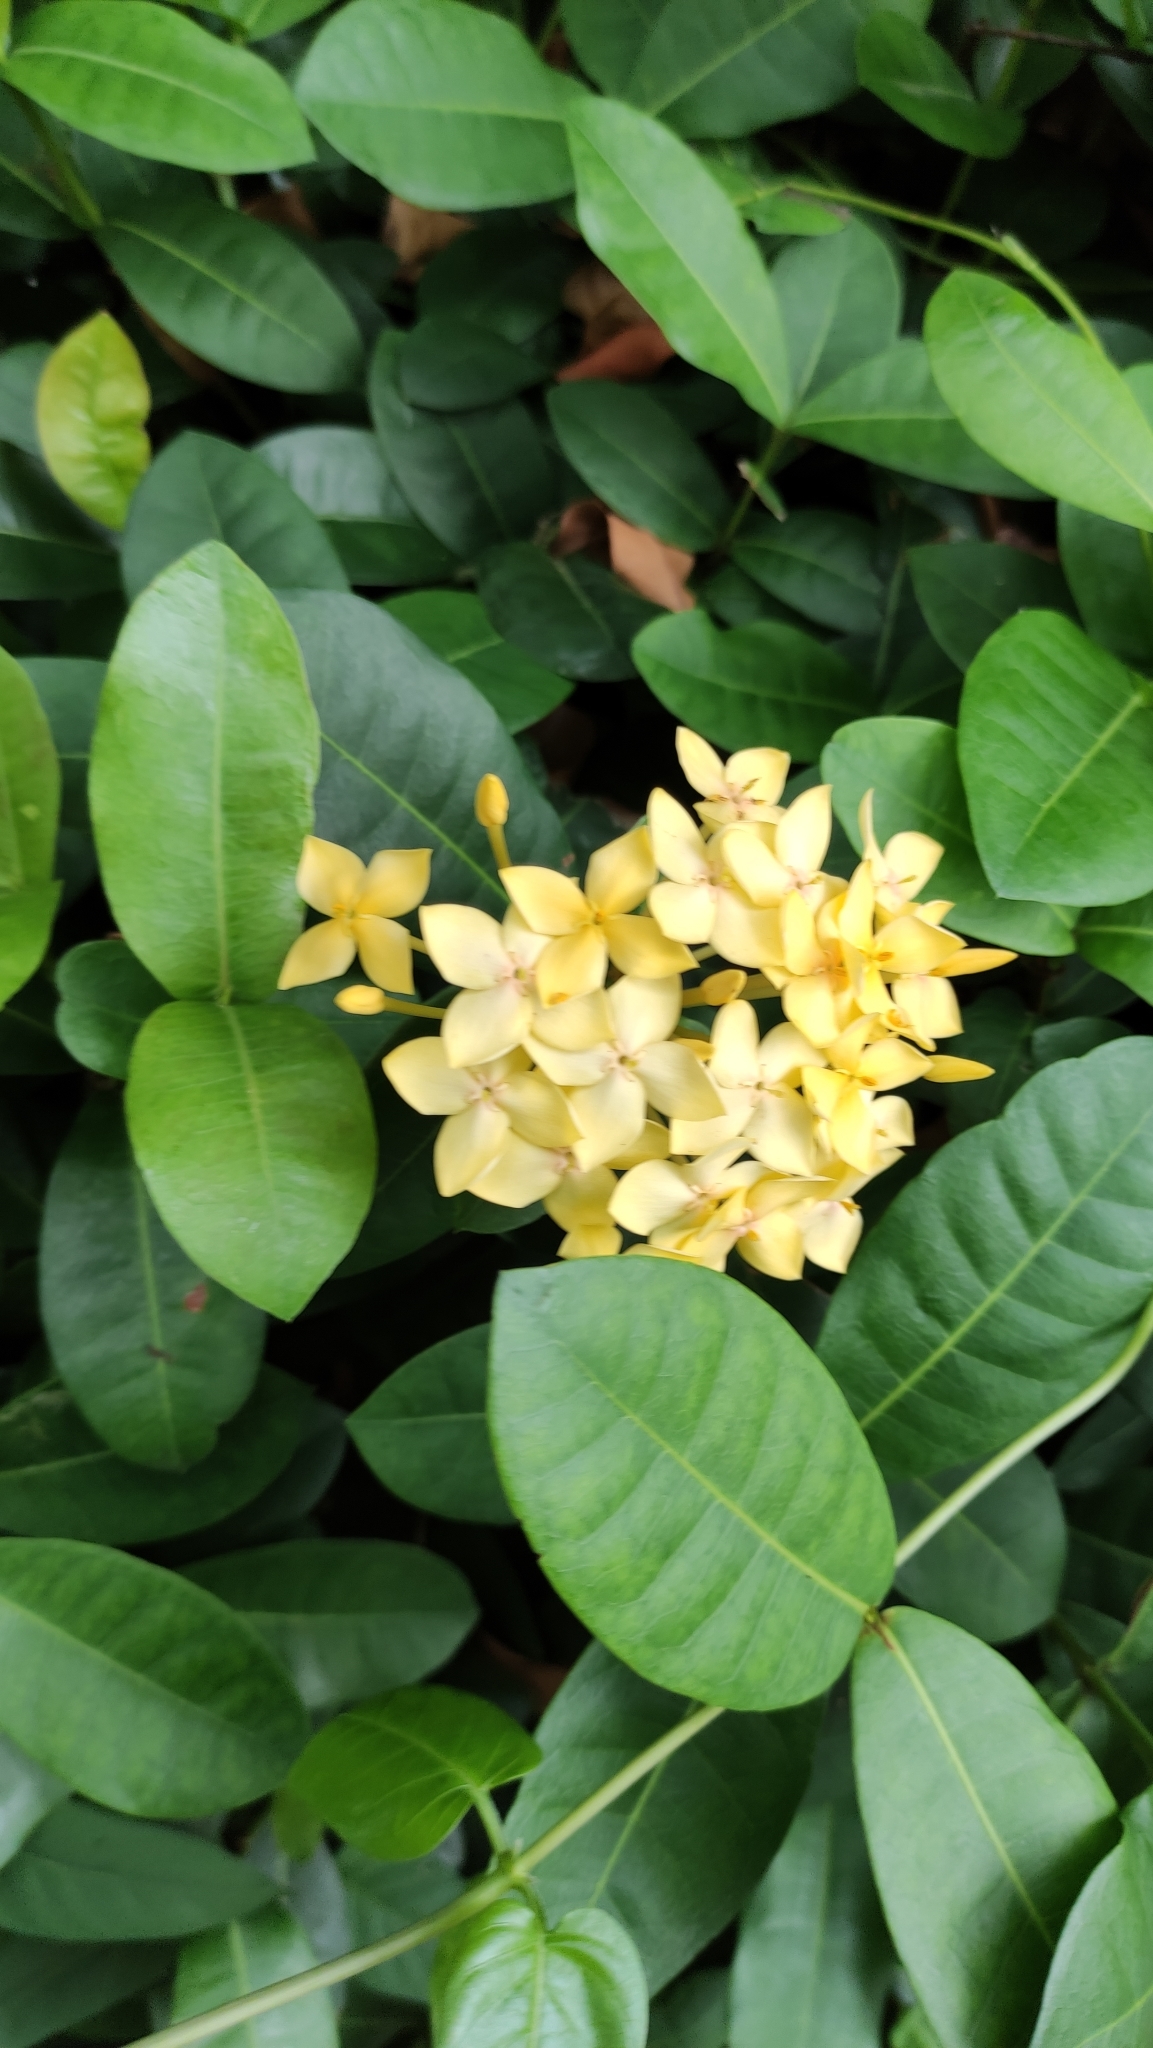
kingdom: Plantae
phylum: Tracheophyta
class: Magnoliopsida
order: Gentianales
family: Rubiaceae
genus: Ixora
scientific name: Ixora chinensis
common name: Chinese ixora
